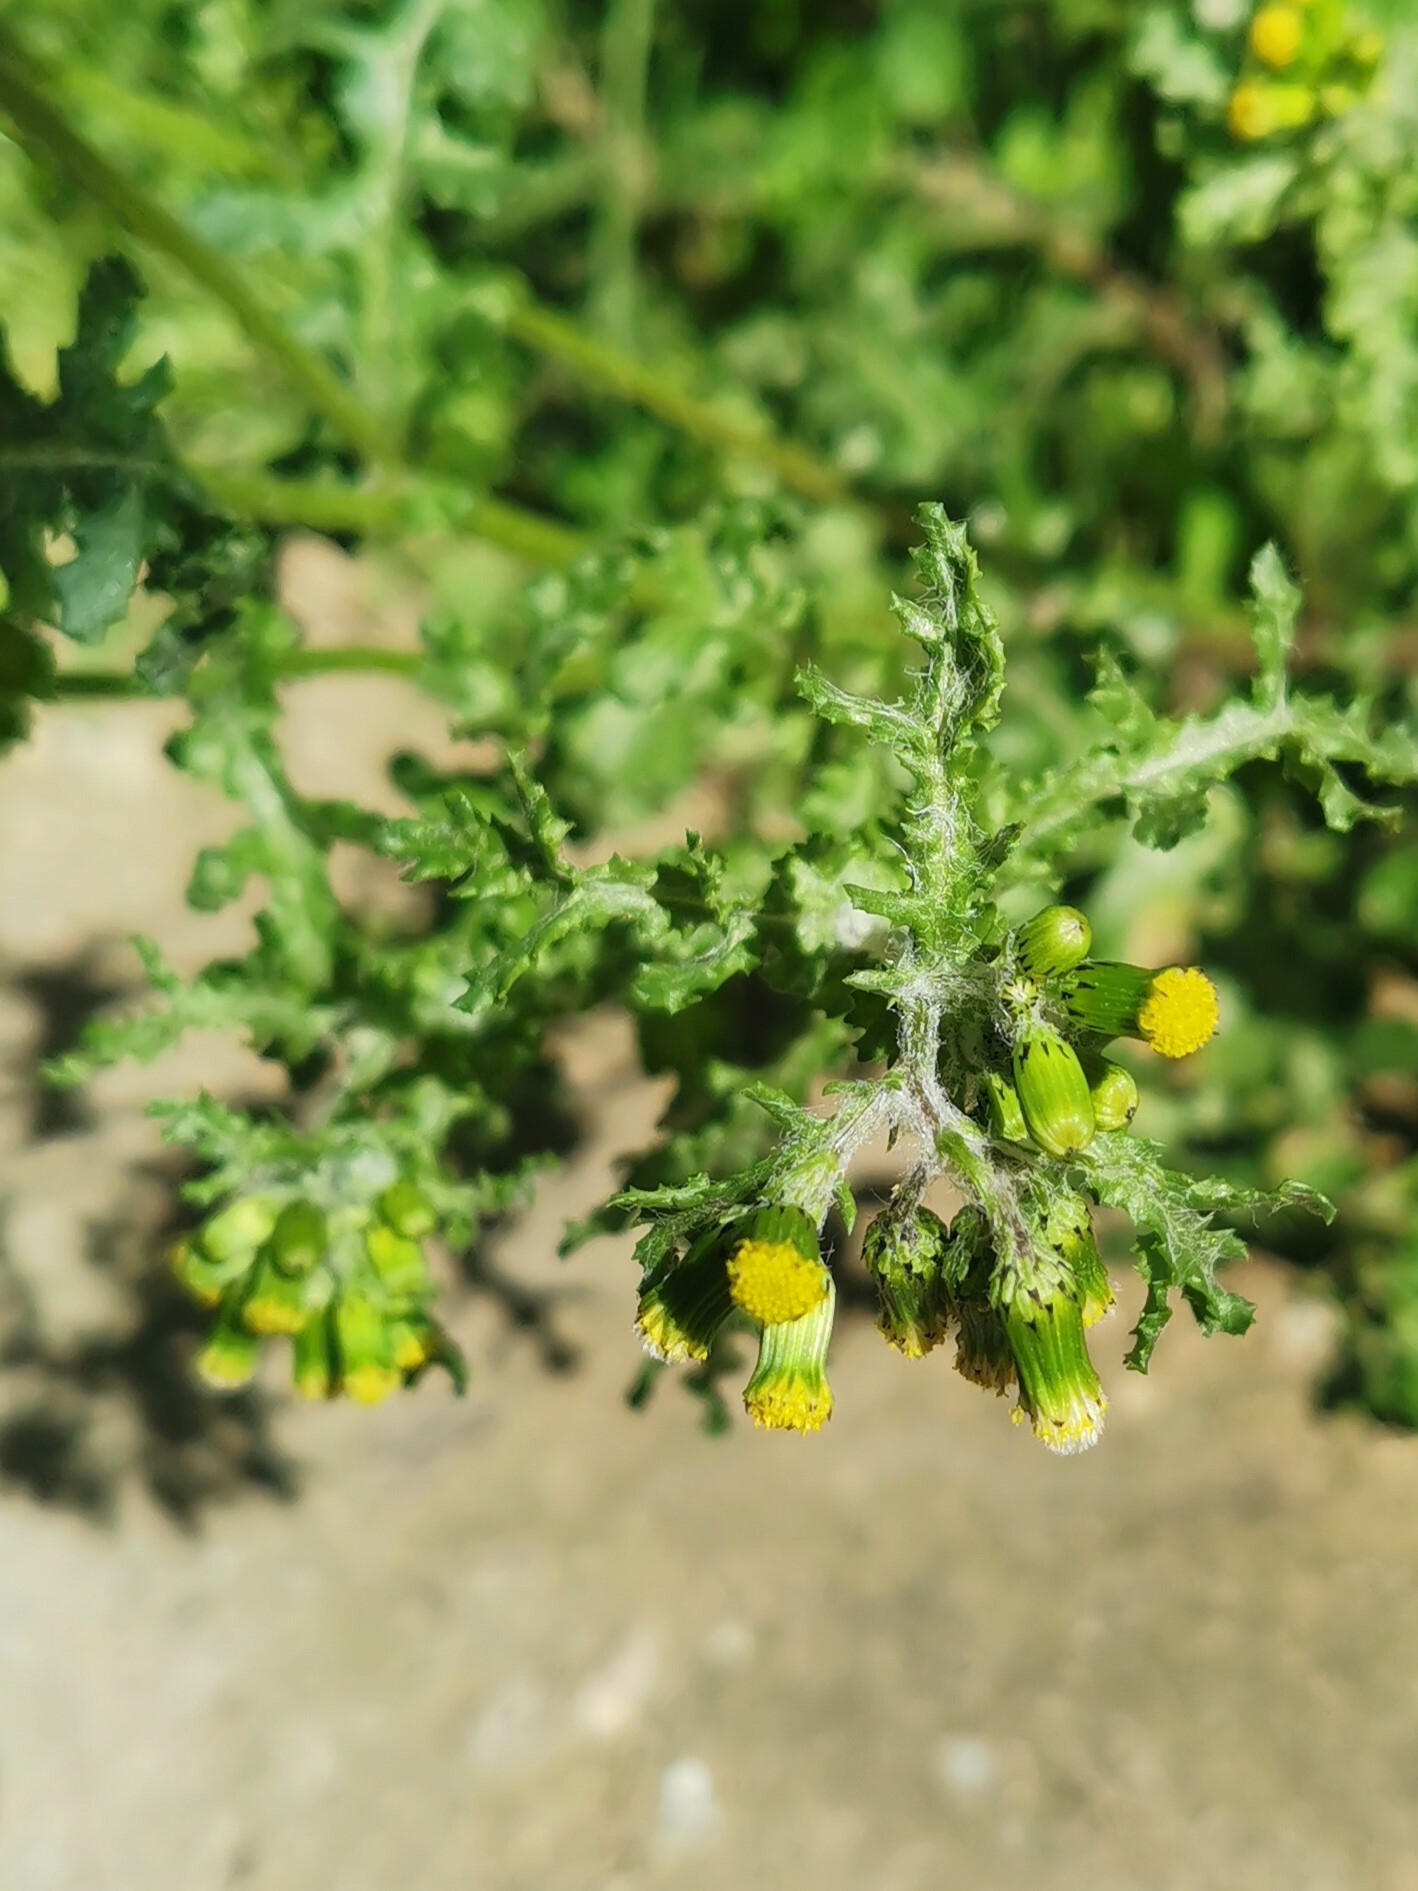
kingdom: Plantae
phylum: Tracheophyta
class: Magnoliopsida
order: Asterales
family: Asteraceae
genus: Senecio
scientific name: Senecio vulgaris
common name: Old-man-in-the-spring
